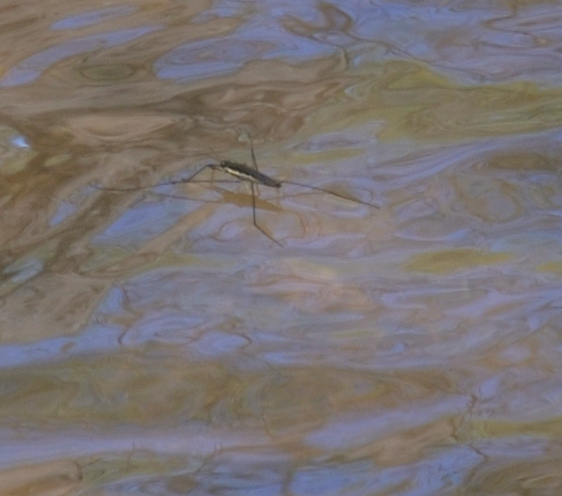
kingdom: Animalia
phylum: Arthropoda
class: Insecta
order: Hemiptera
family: Gerridae
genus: Aquarius
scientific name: Aquarius
